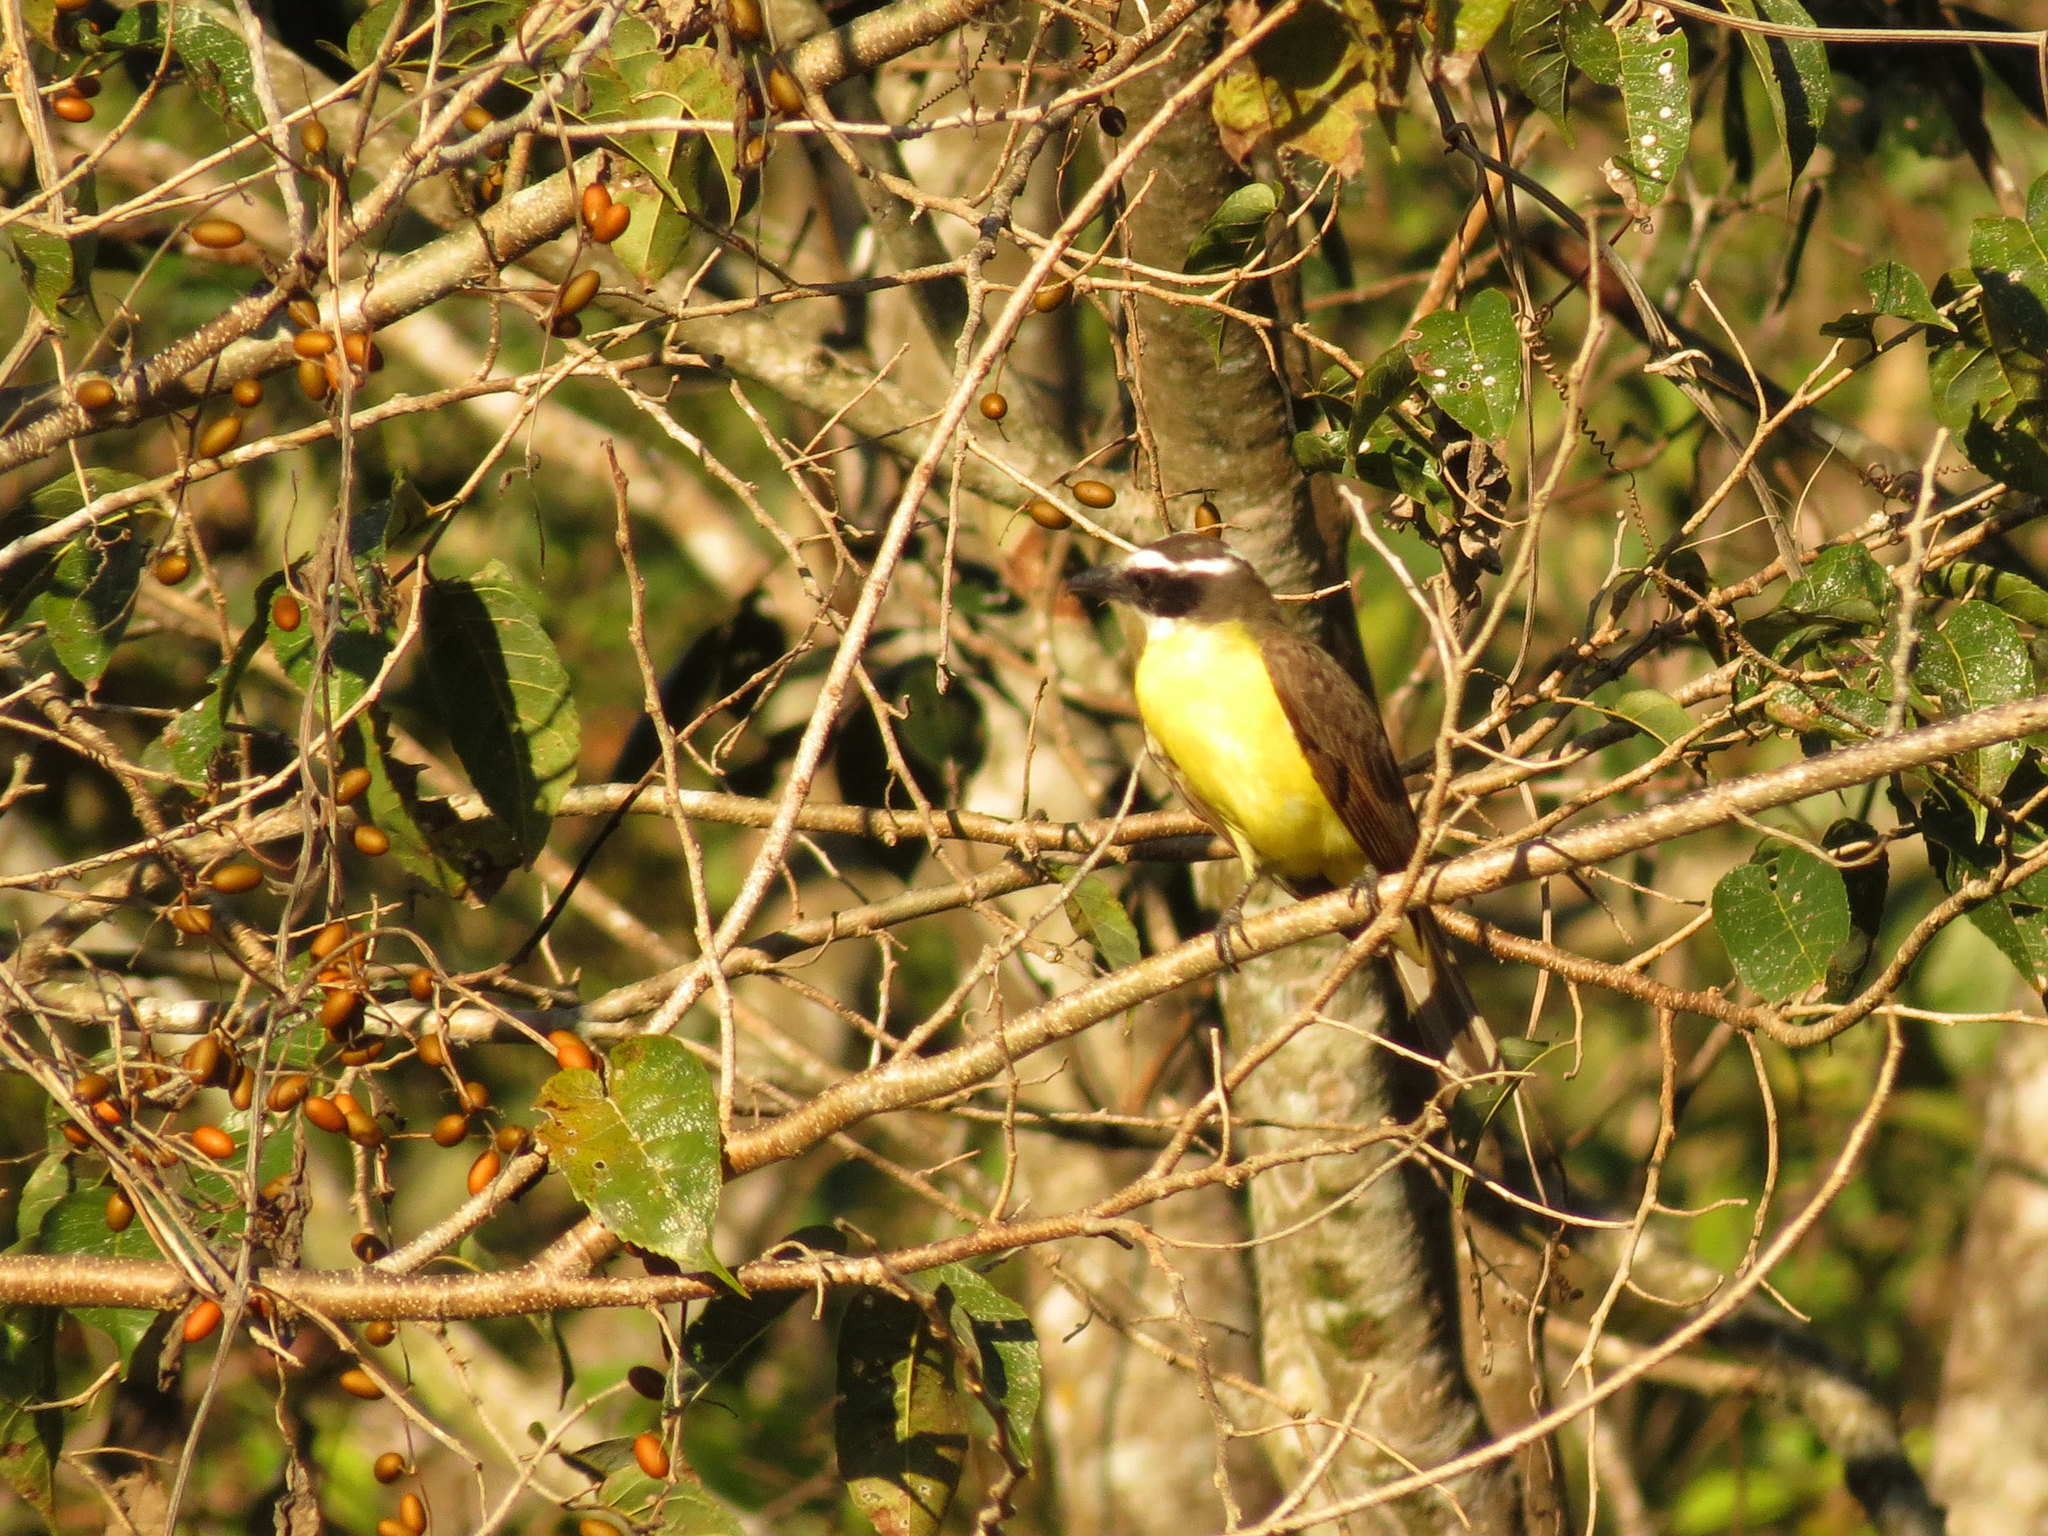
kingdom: Animalia
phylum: Chordata
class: Aves
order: Passeriformes
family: Tyrannidae
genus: Megarynchus
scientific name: Megarynchus pitangua
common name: Boat-billed flycatcher
